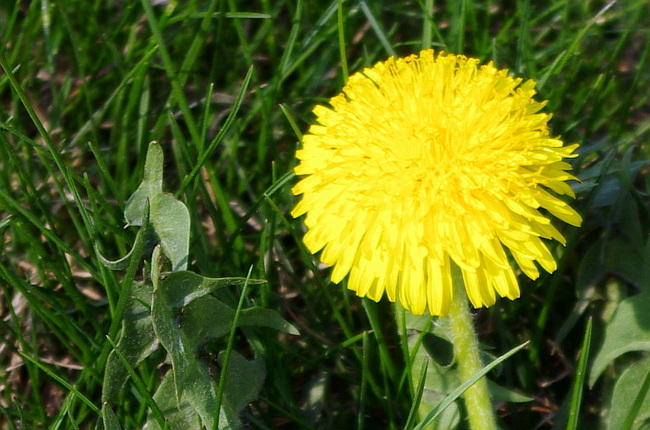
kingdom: Plantae
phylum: Tracheophyta
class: Magnoliopsida
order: Asterales
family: Asteraceae
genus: Taraxacum
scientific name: Taraxacum officinale
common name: Common dandelion
